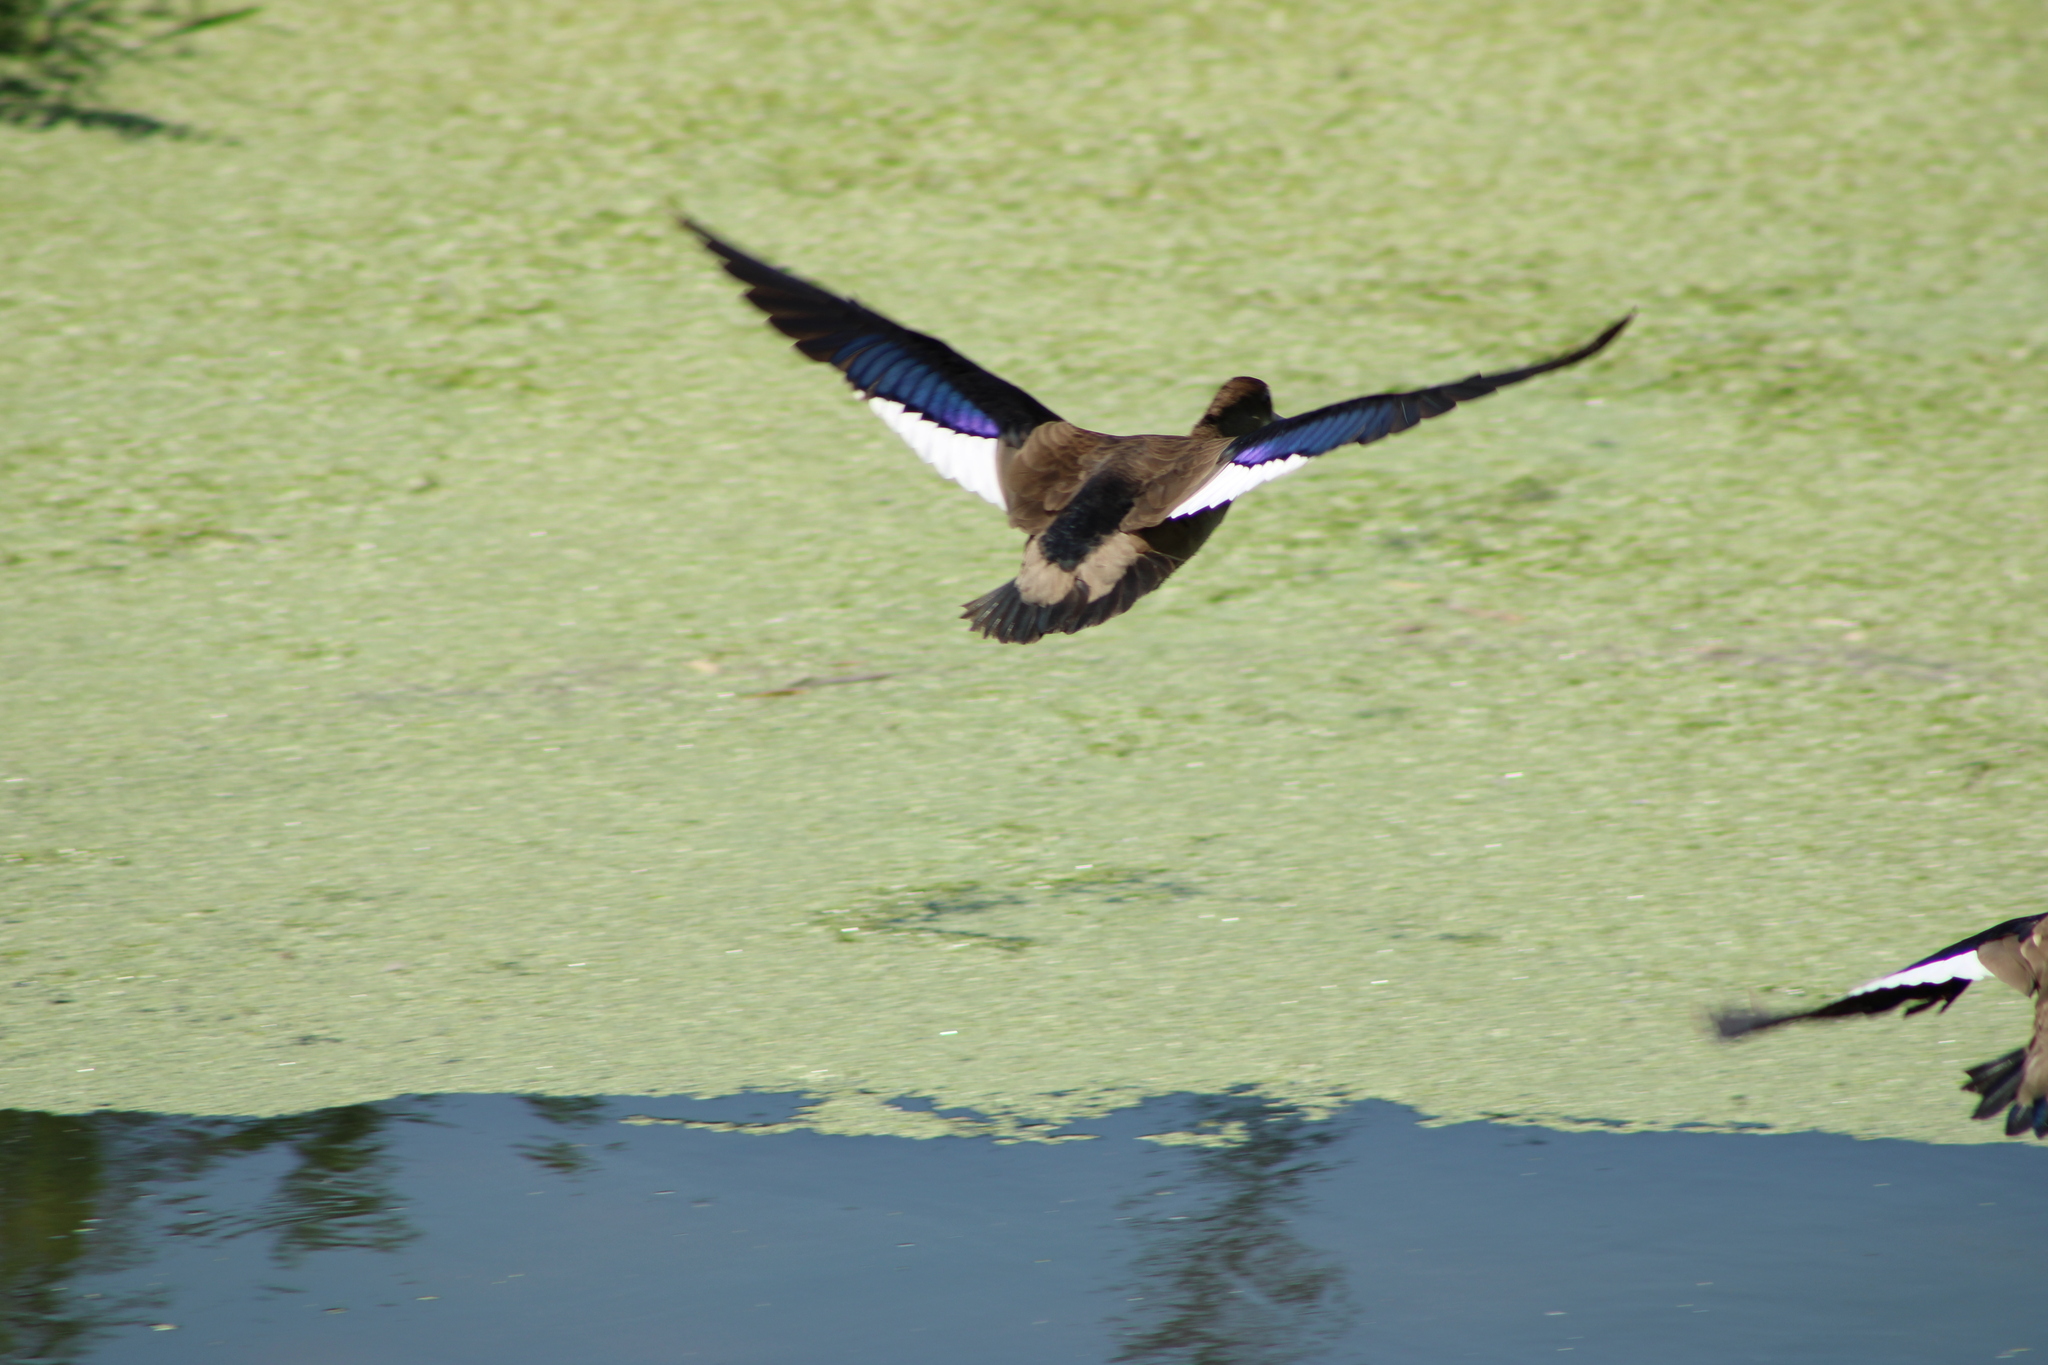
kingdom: Animalia
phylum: Chordata
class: Aves
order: Anseriformes
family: Anatidae
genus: Amazonetta
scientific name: Amazonetta brasiliensis
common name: Brazilian teal
